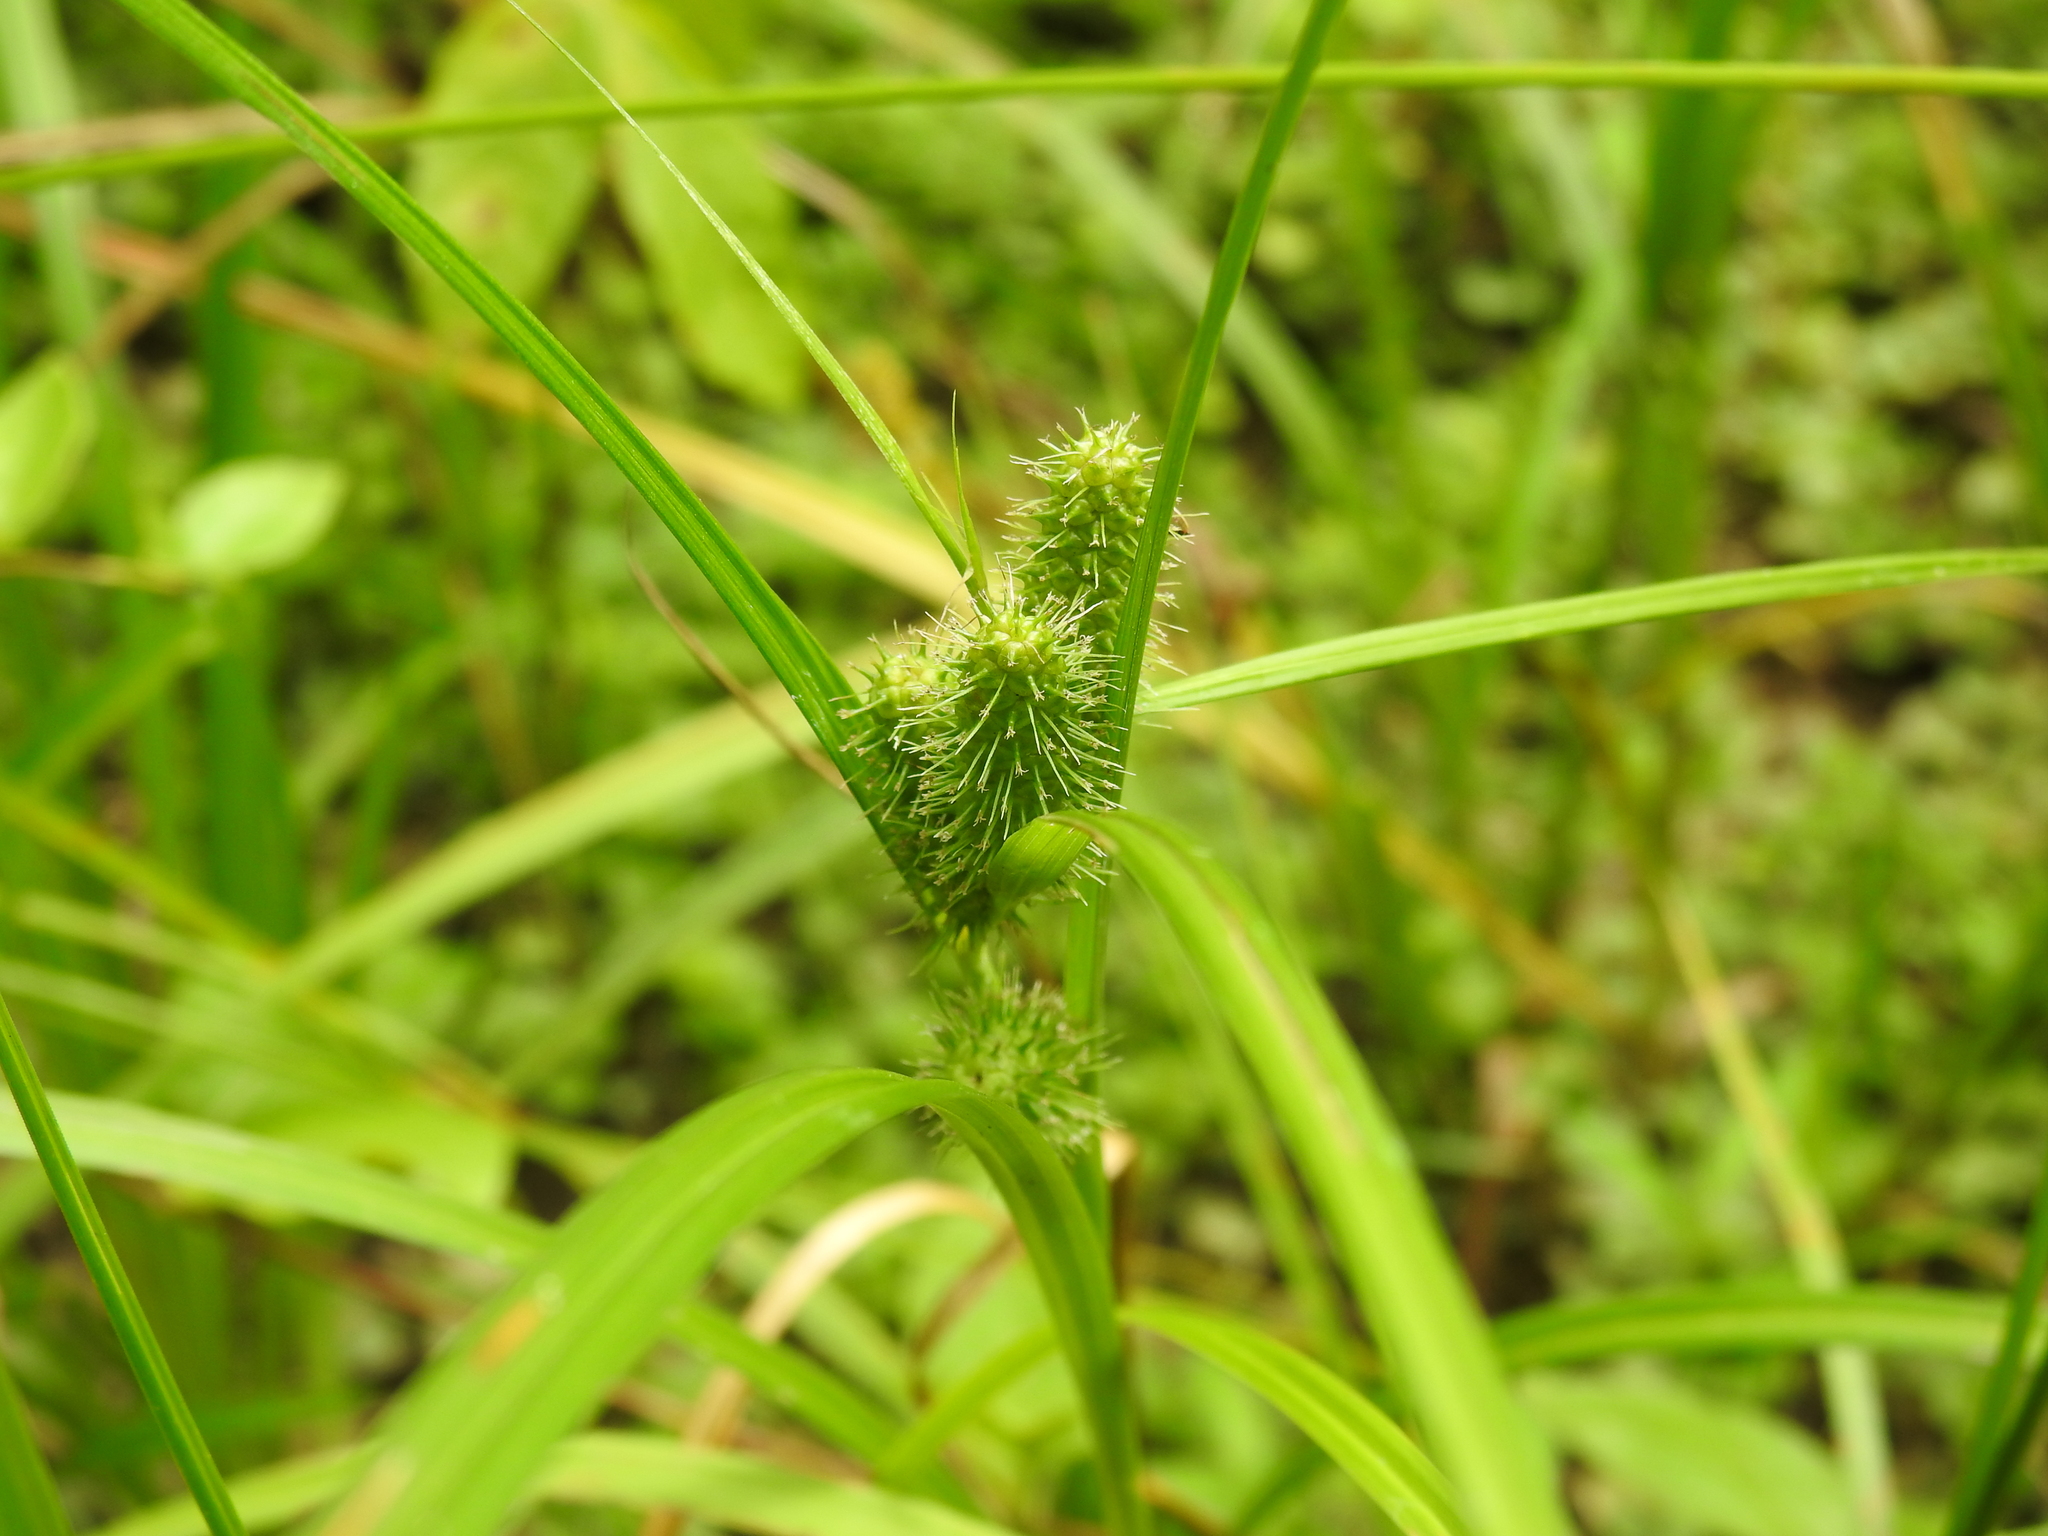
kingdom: Plantae
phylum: Tracheophyta
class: Liliopsida
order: Poales
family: Cyperaceae
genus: Carex
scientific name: Carex frankii
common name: Frank's sedge
